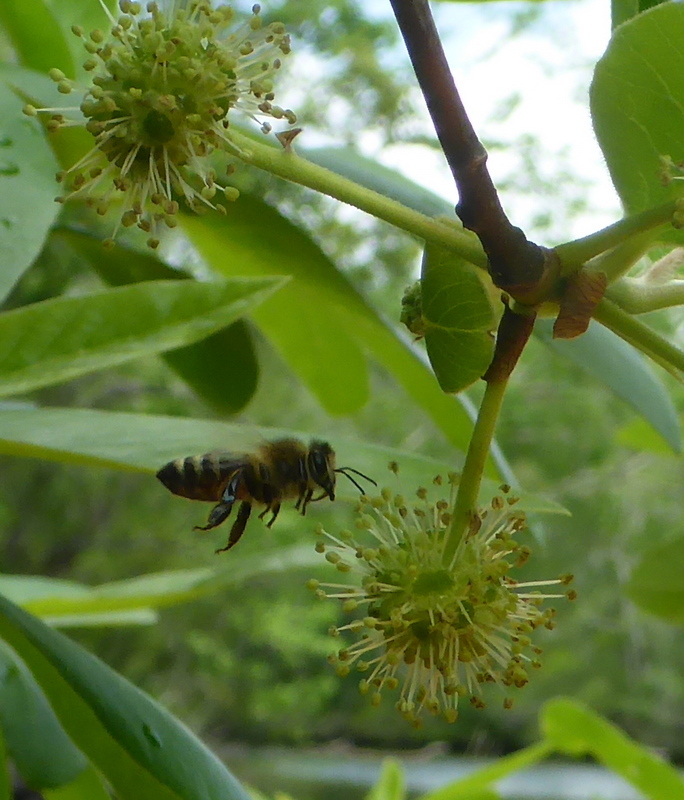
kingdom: Animalia
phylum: Arthropoda
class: Insecta
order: Hymenoptera
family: Apidae
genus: Apis
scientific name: Apis mellifera
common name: Honey bee
